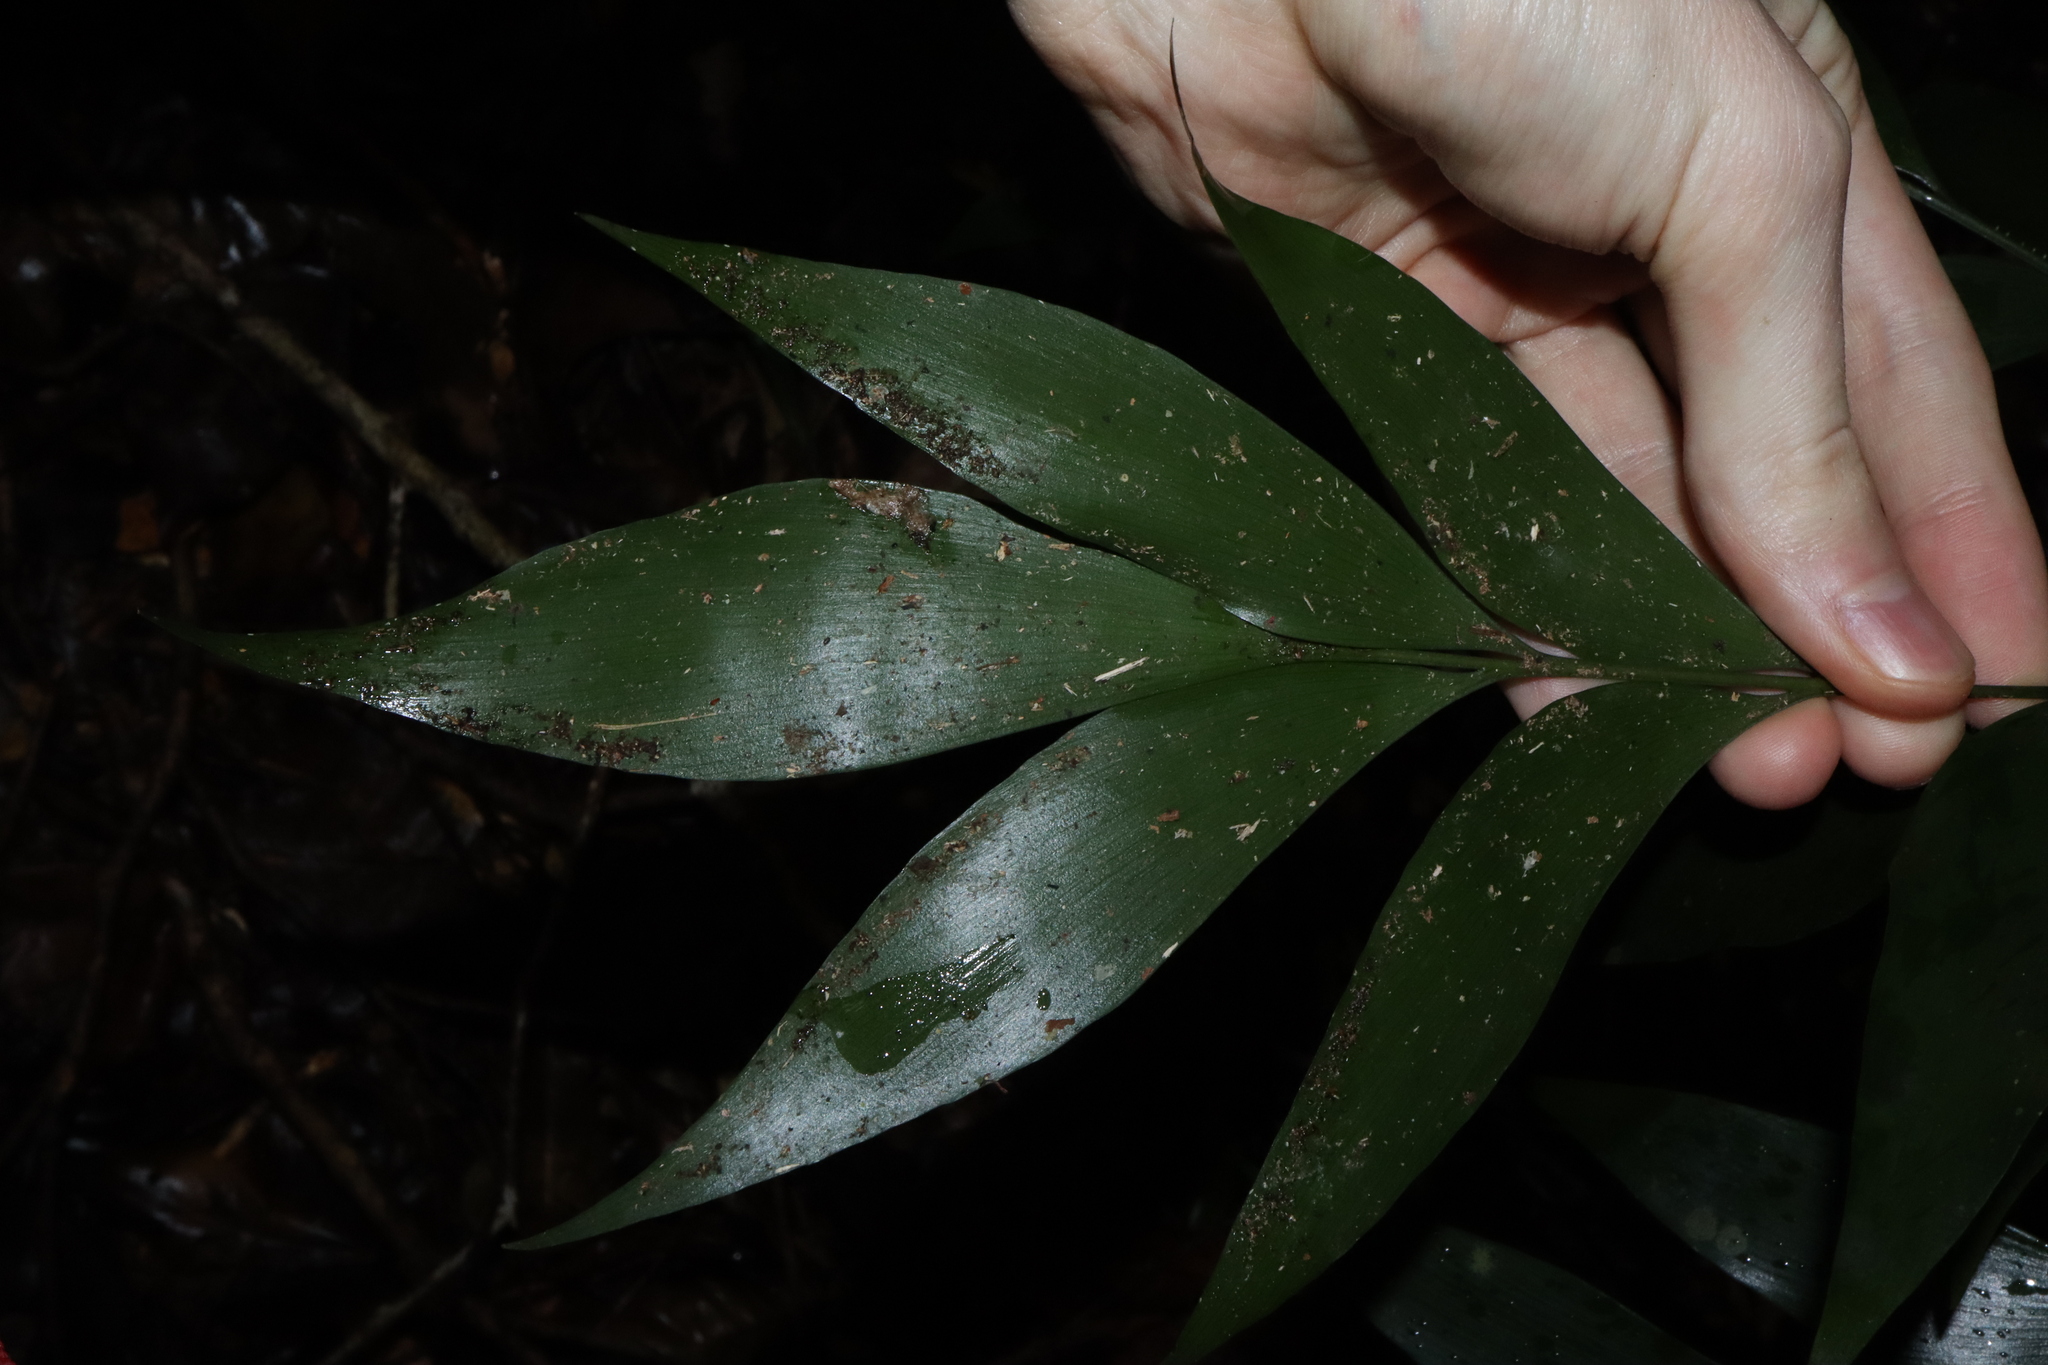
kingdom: Plantae
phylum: Tracheophyta
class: Cycadopsida
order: Cycadales
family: Zamiaceae
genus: Bowenia
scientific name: Bowenia spectabilis
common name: Zamia-fern
